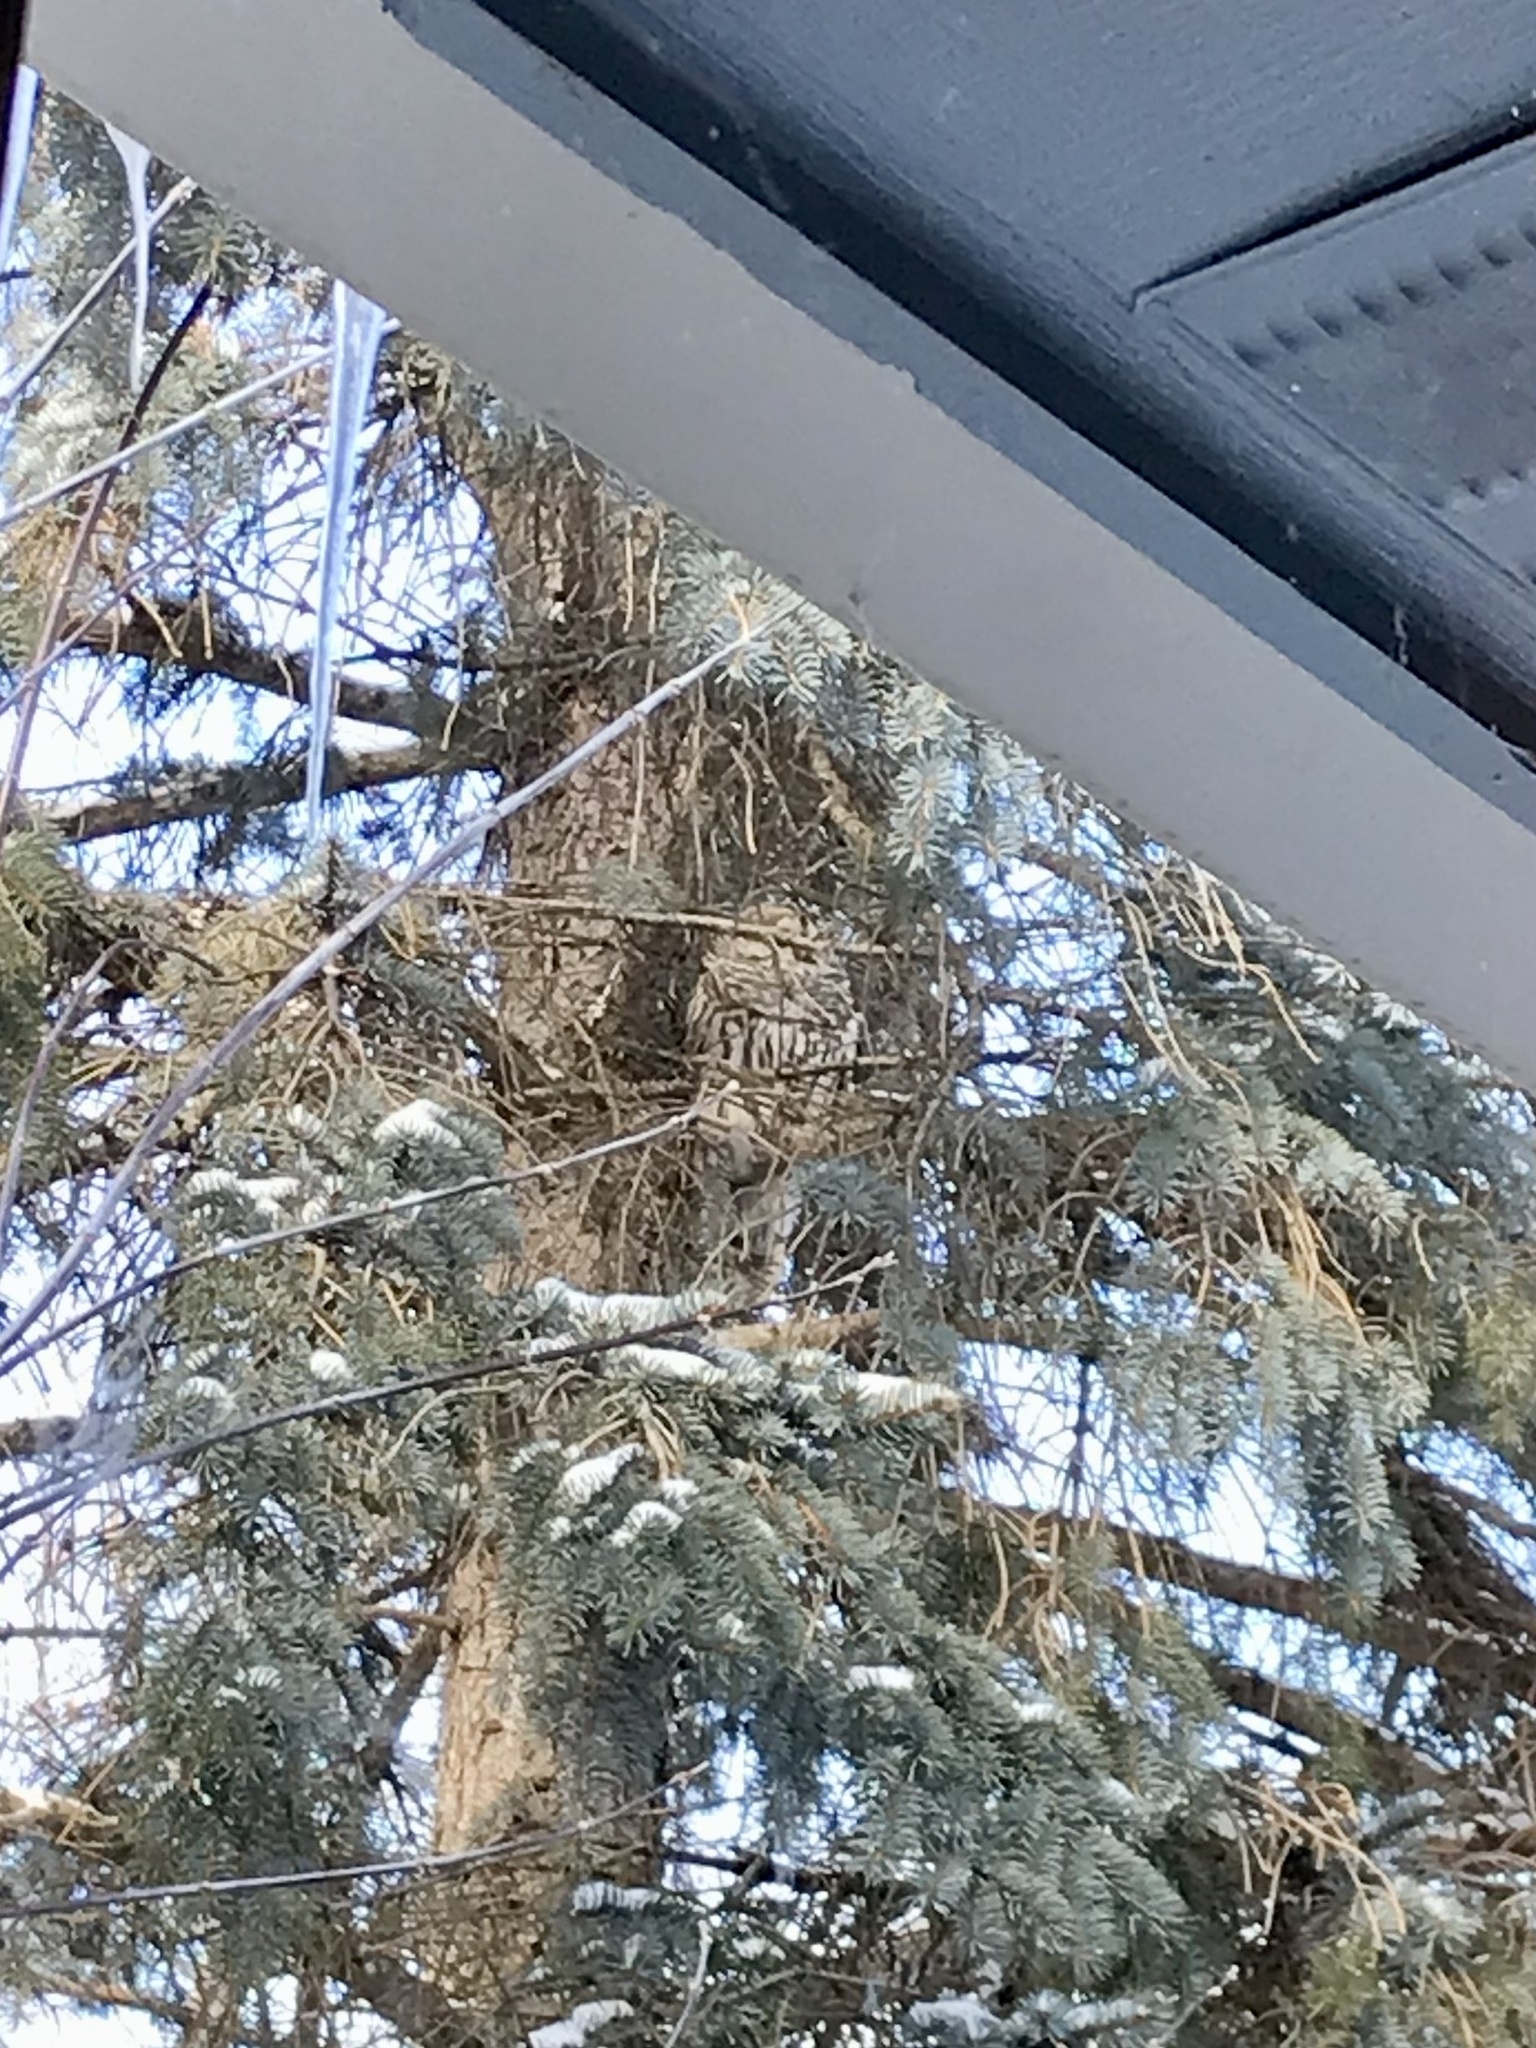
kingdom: Animalia
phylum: Chordata
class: Aves
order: Strigiformes
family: Strigidae
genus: Strix
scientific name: Strix varia
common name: Barred owl
